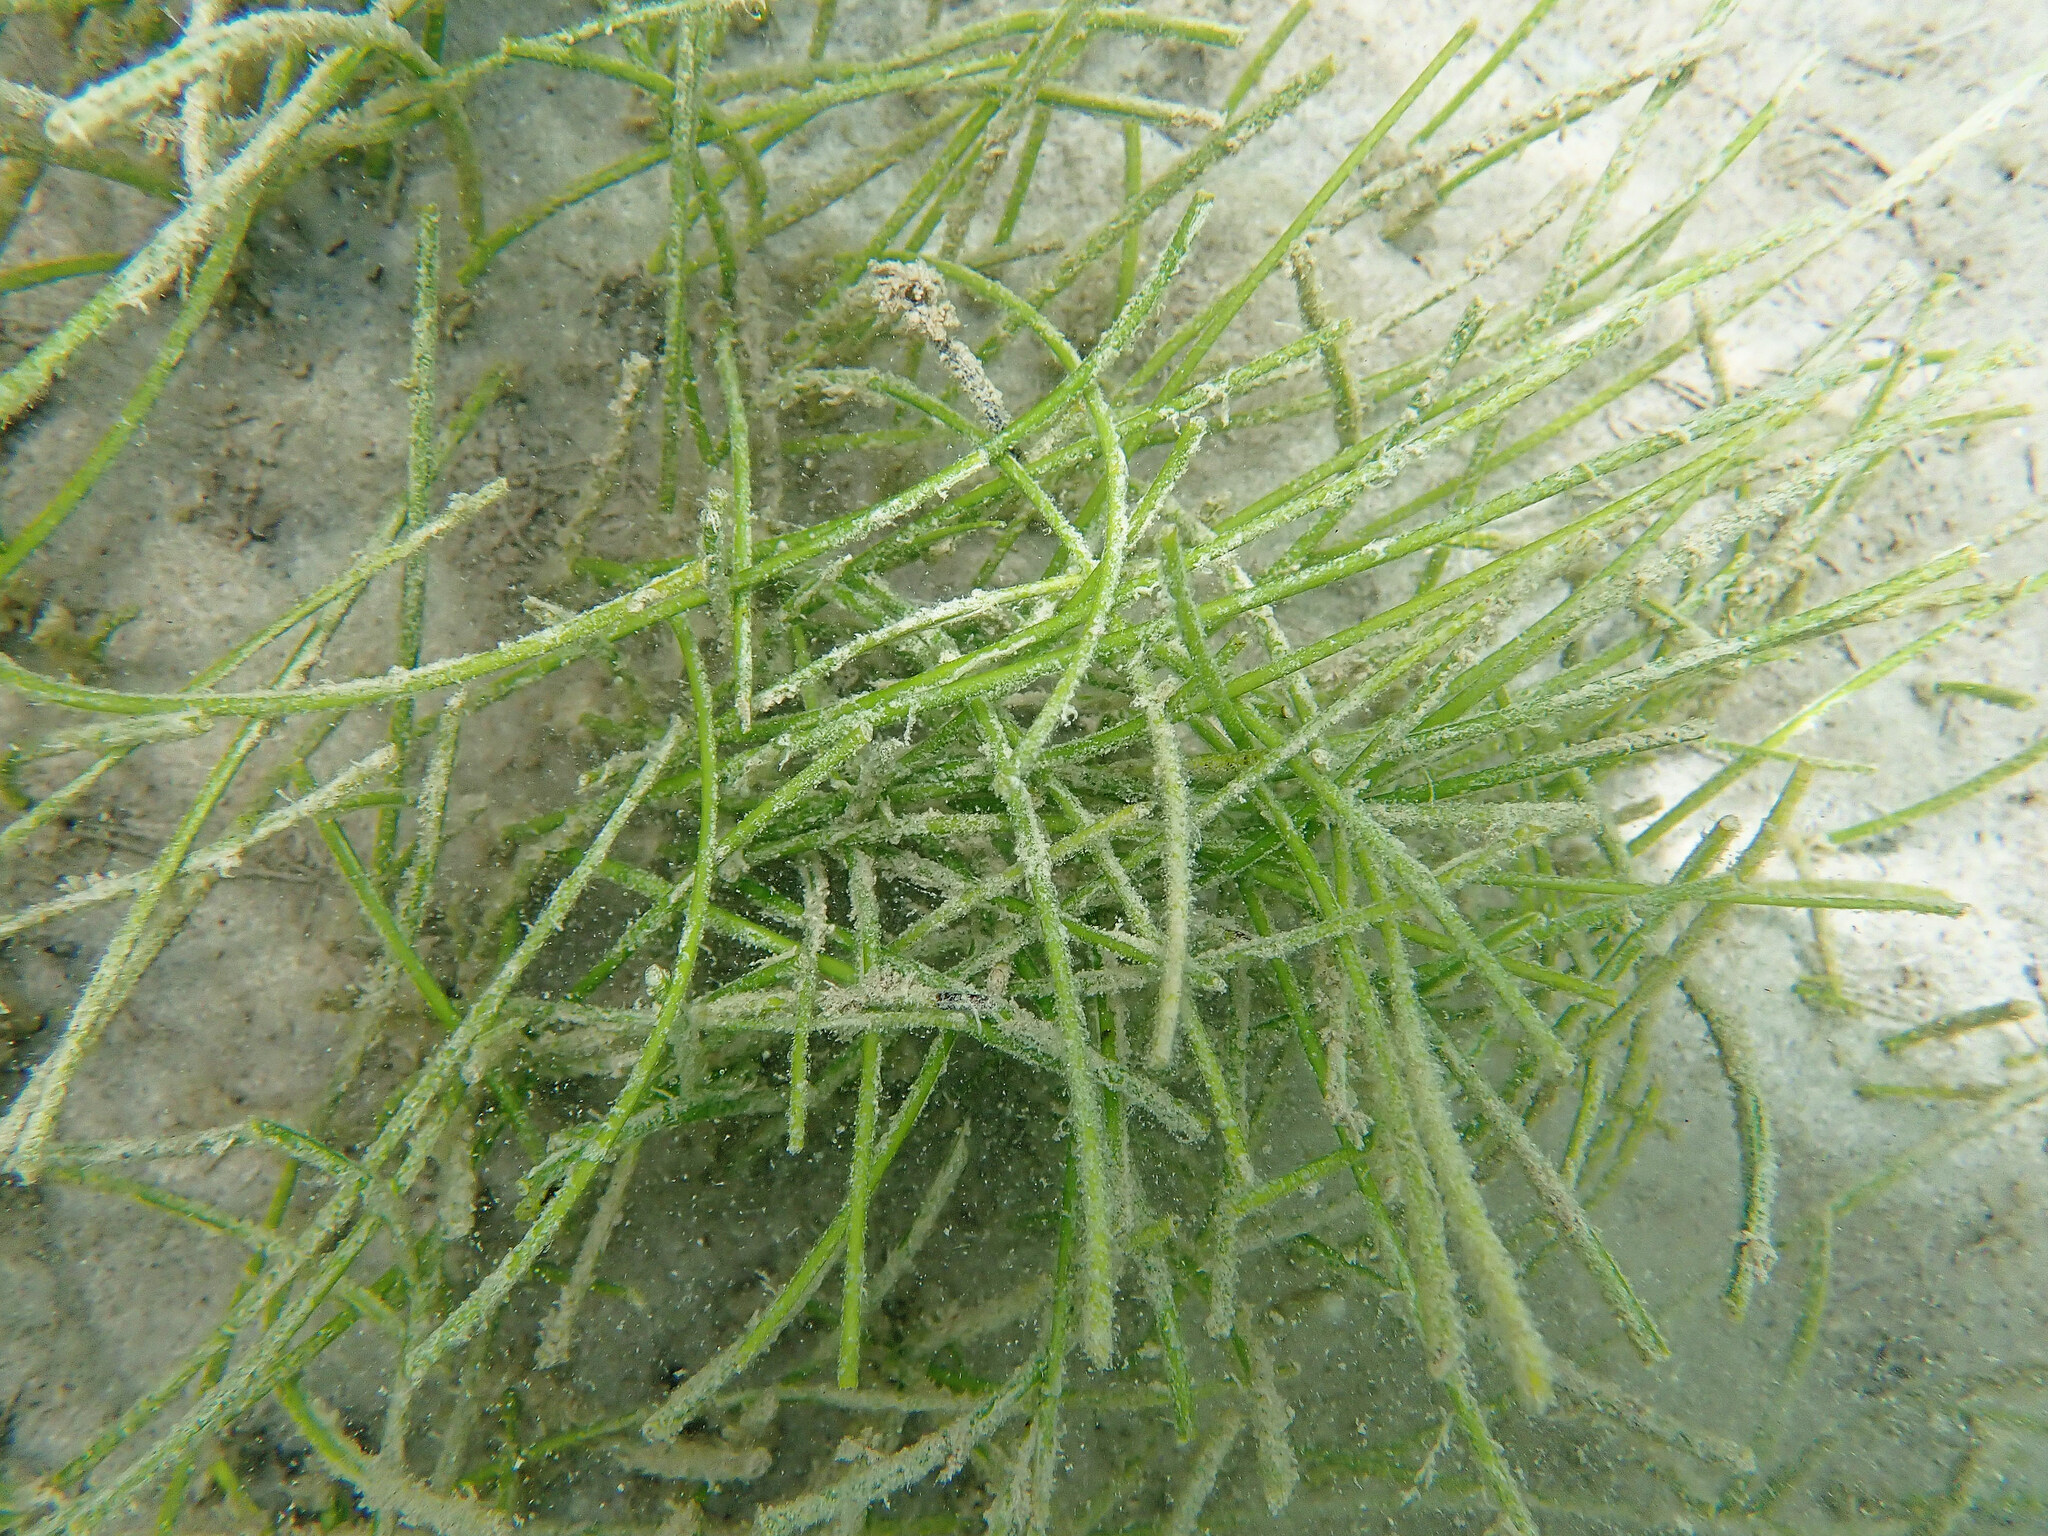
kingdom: Plantae
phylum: Tracheophyta
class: Liliopsida
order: Alismatales
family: Cymodoceaceae
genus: Syringodium
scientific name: Syringodium filiforme
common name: Manatee grass
